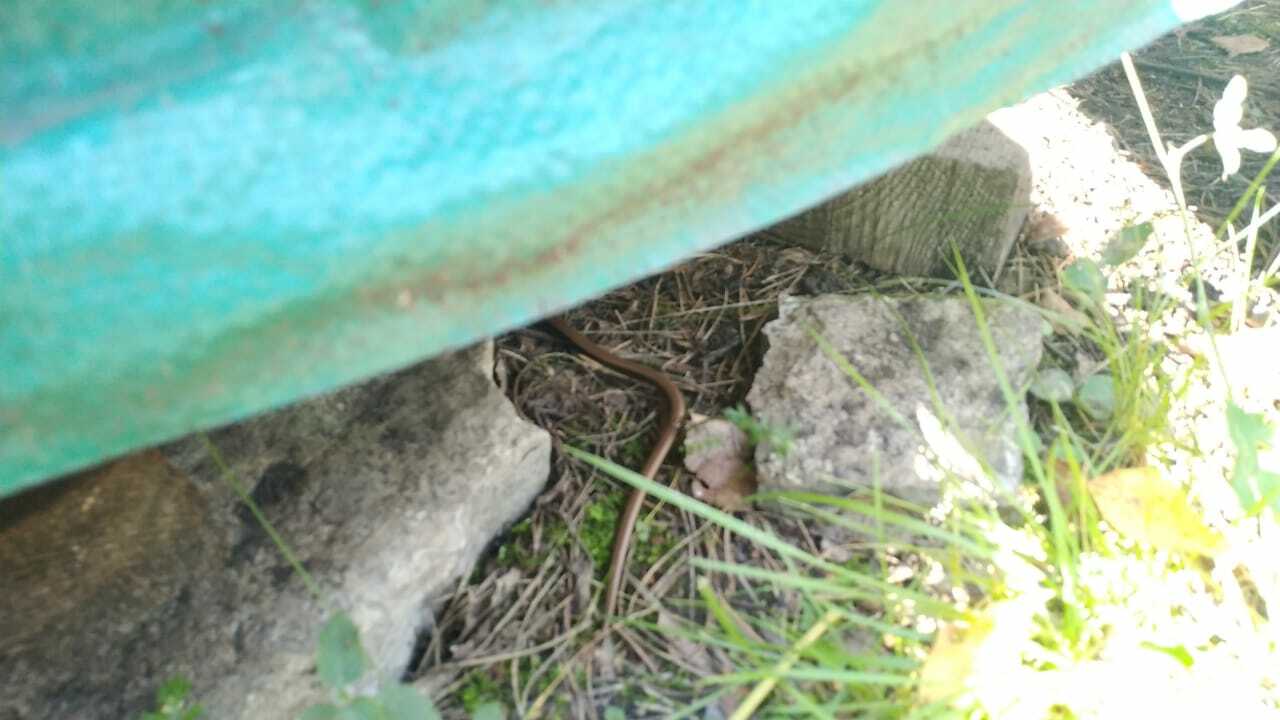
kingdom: Animalia
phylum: Chordata
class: Squamata
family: Anguidae
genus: Anguis
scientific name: Anguis colchica
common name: Slow worm
